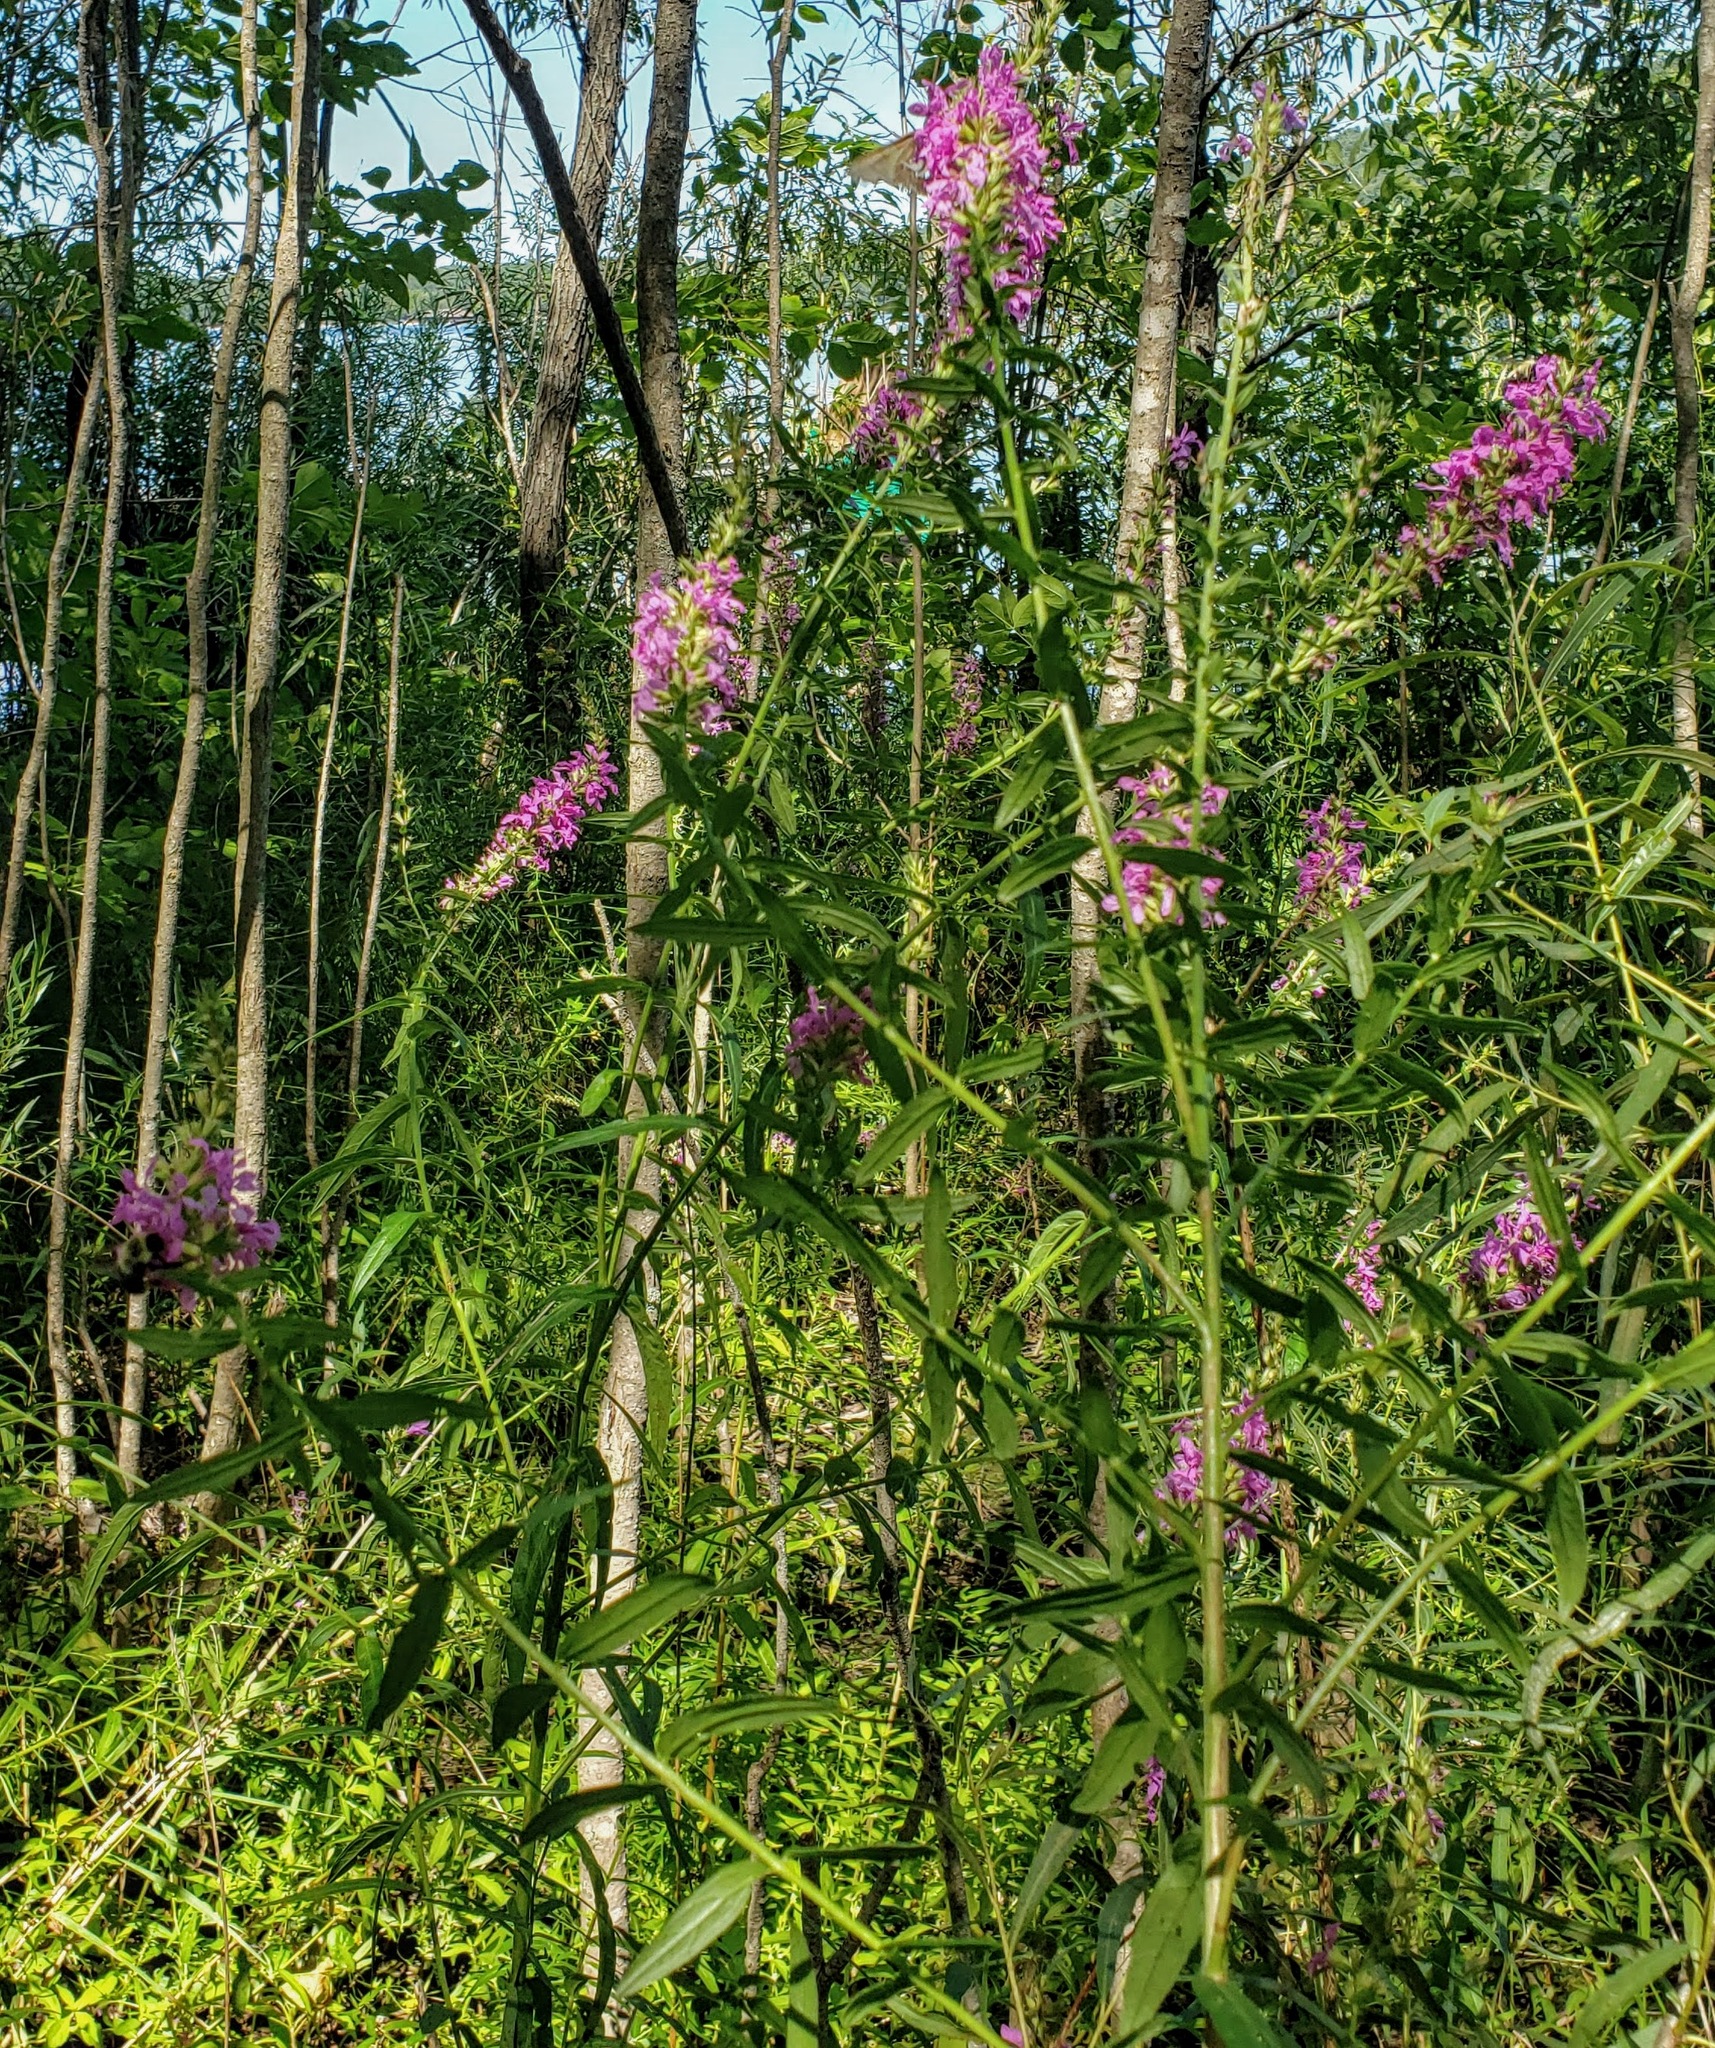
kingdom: Plantae
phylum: Tracheophyta
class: Magnoliopsida
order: Myrtales
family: Lythraceae
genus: Lythrum
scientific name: Lythrum salicaria
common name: Purple loosestrife
